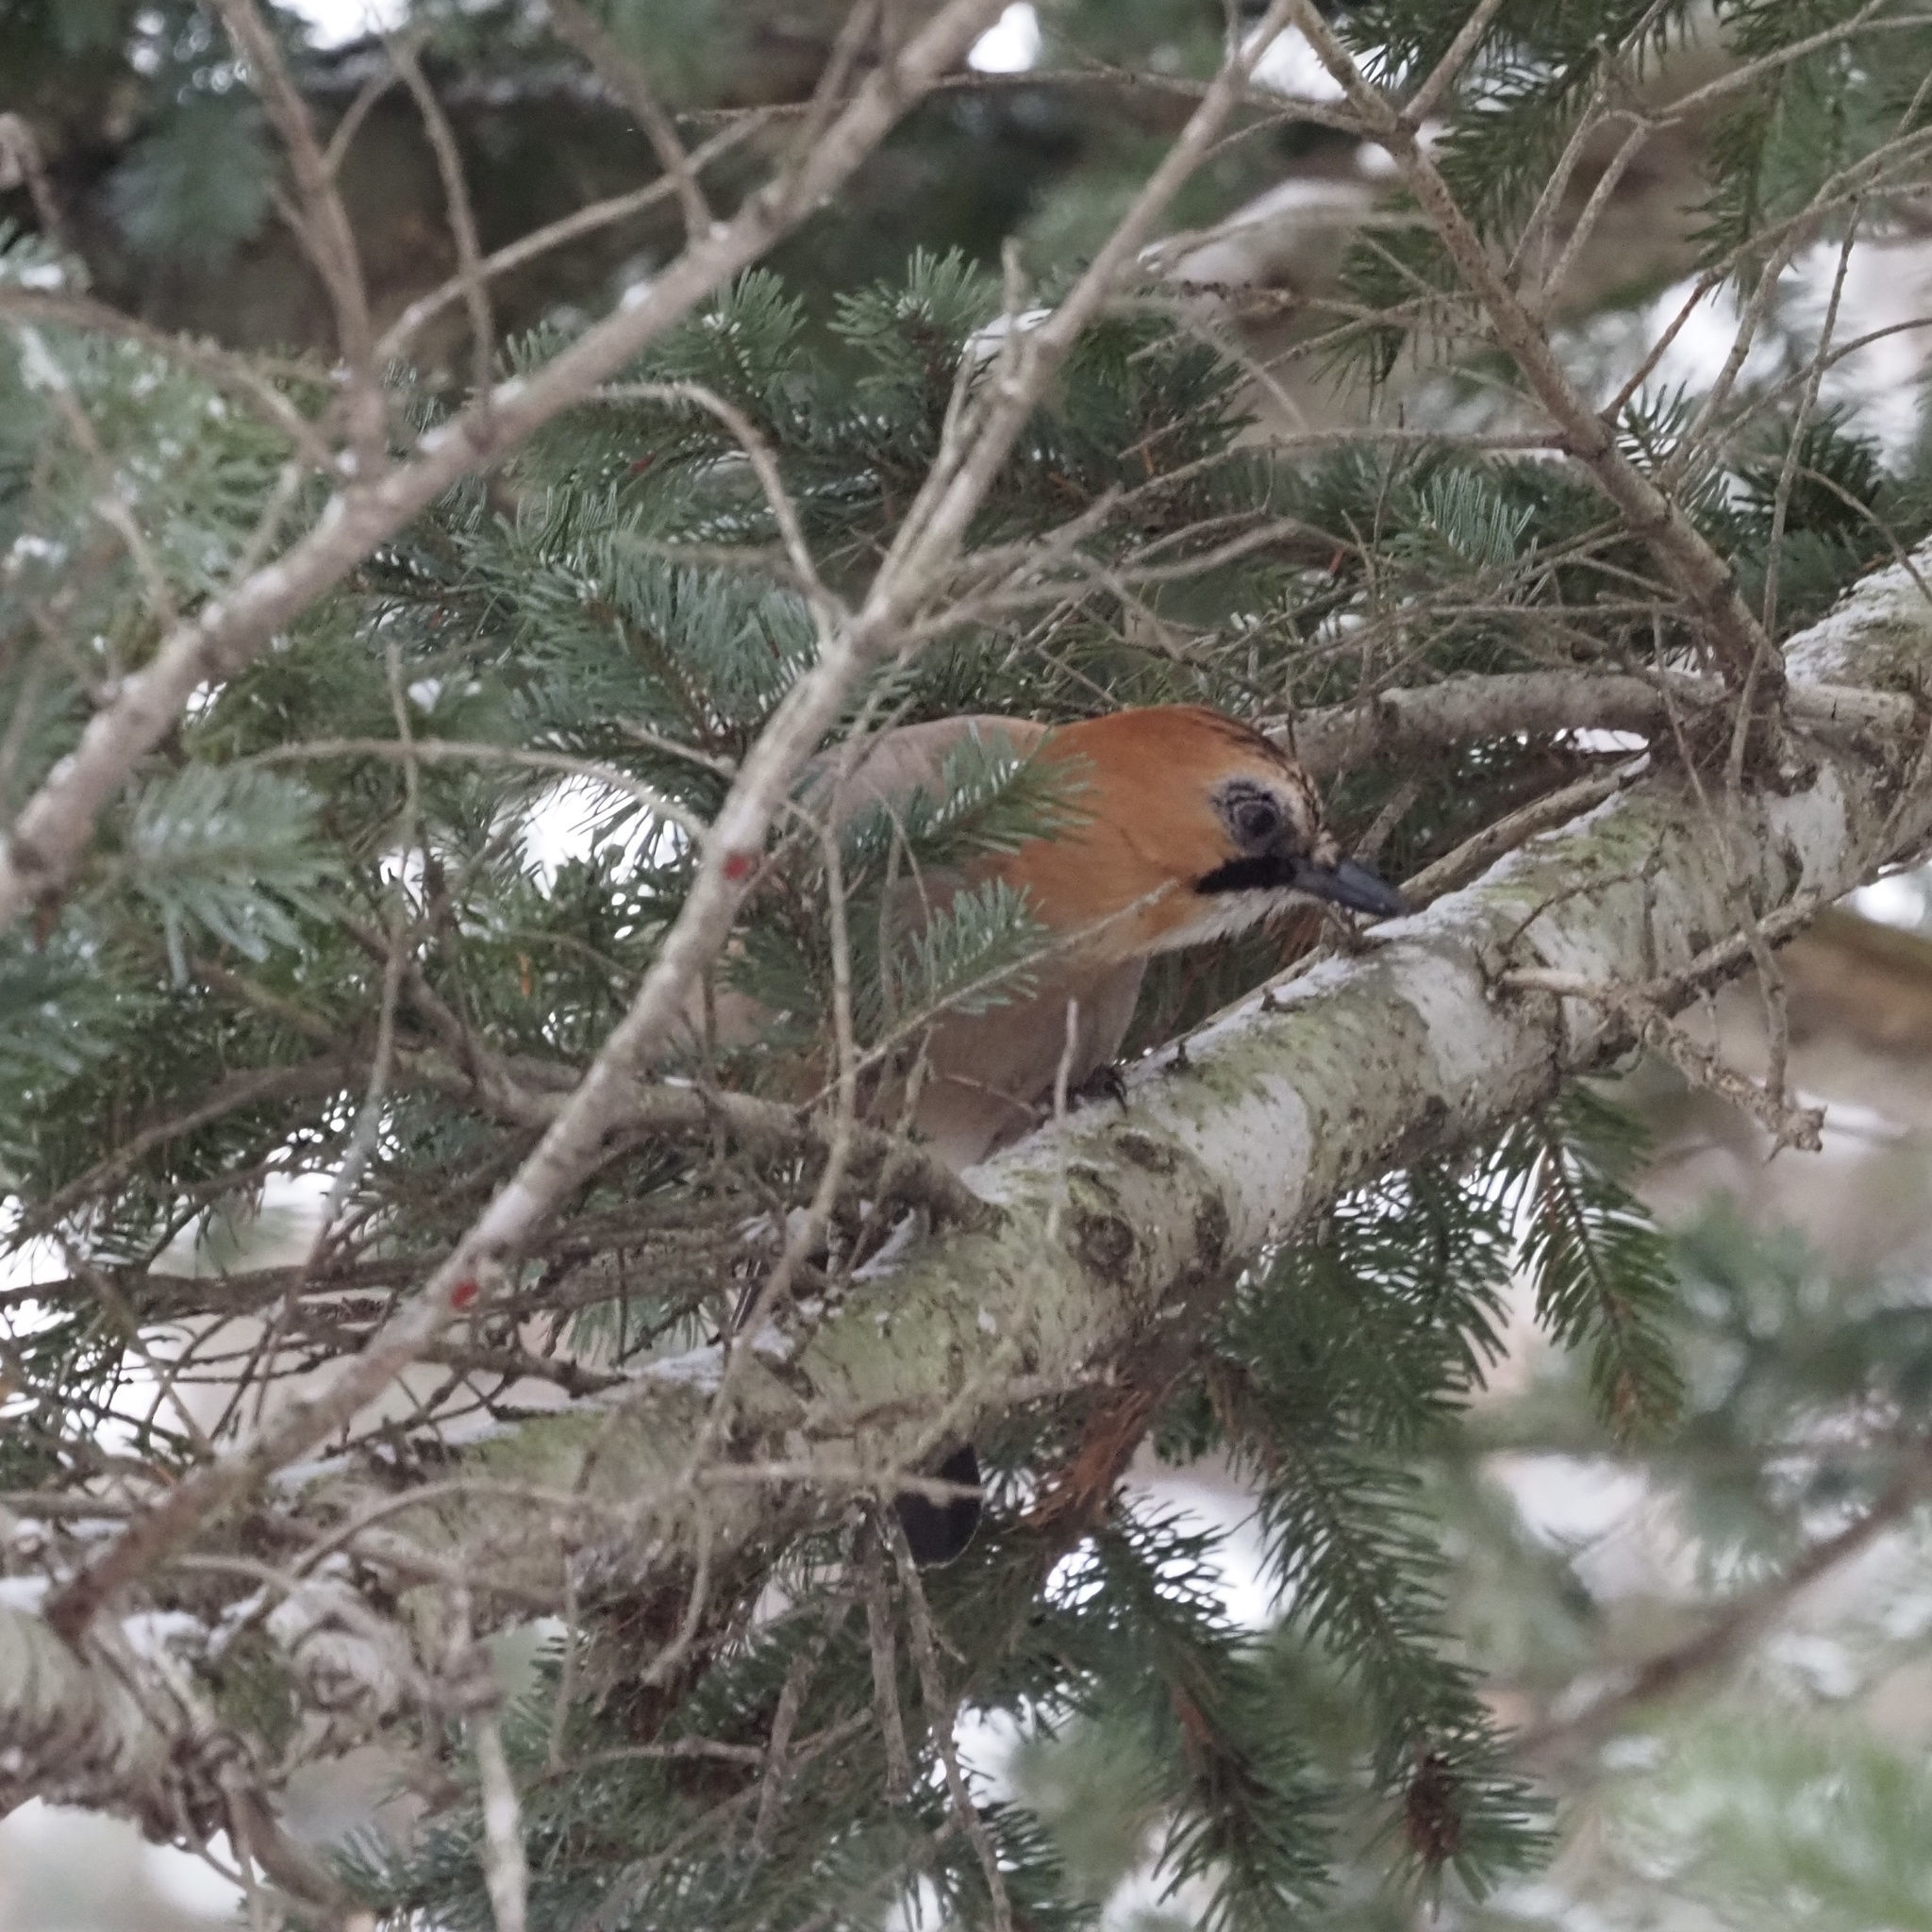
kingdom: Animalia
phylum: Chordata
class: Aves
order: Passeriformes
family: Corvidae
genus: Garrulus
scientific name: Garrulus glandarius
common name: Eurasian jay
